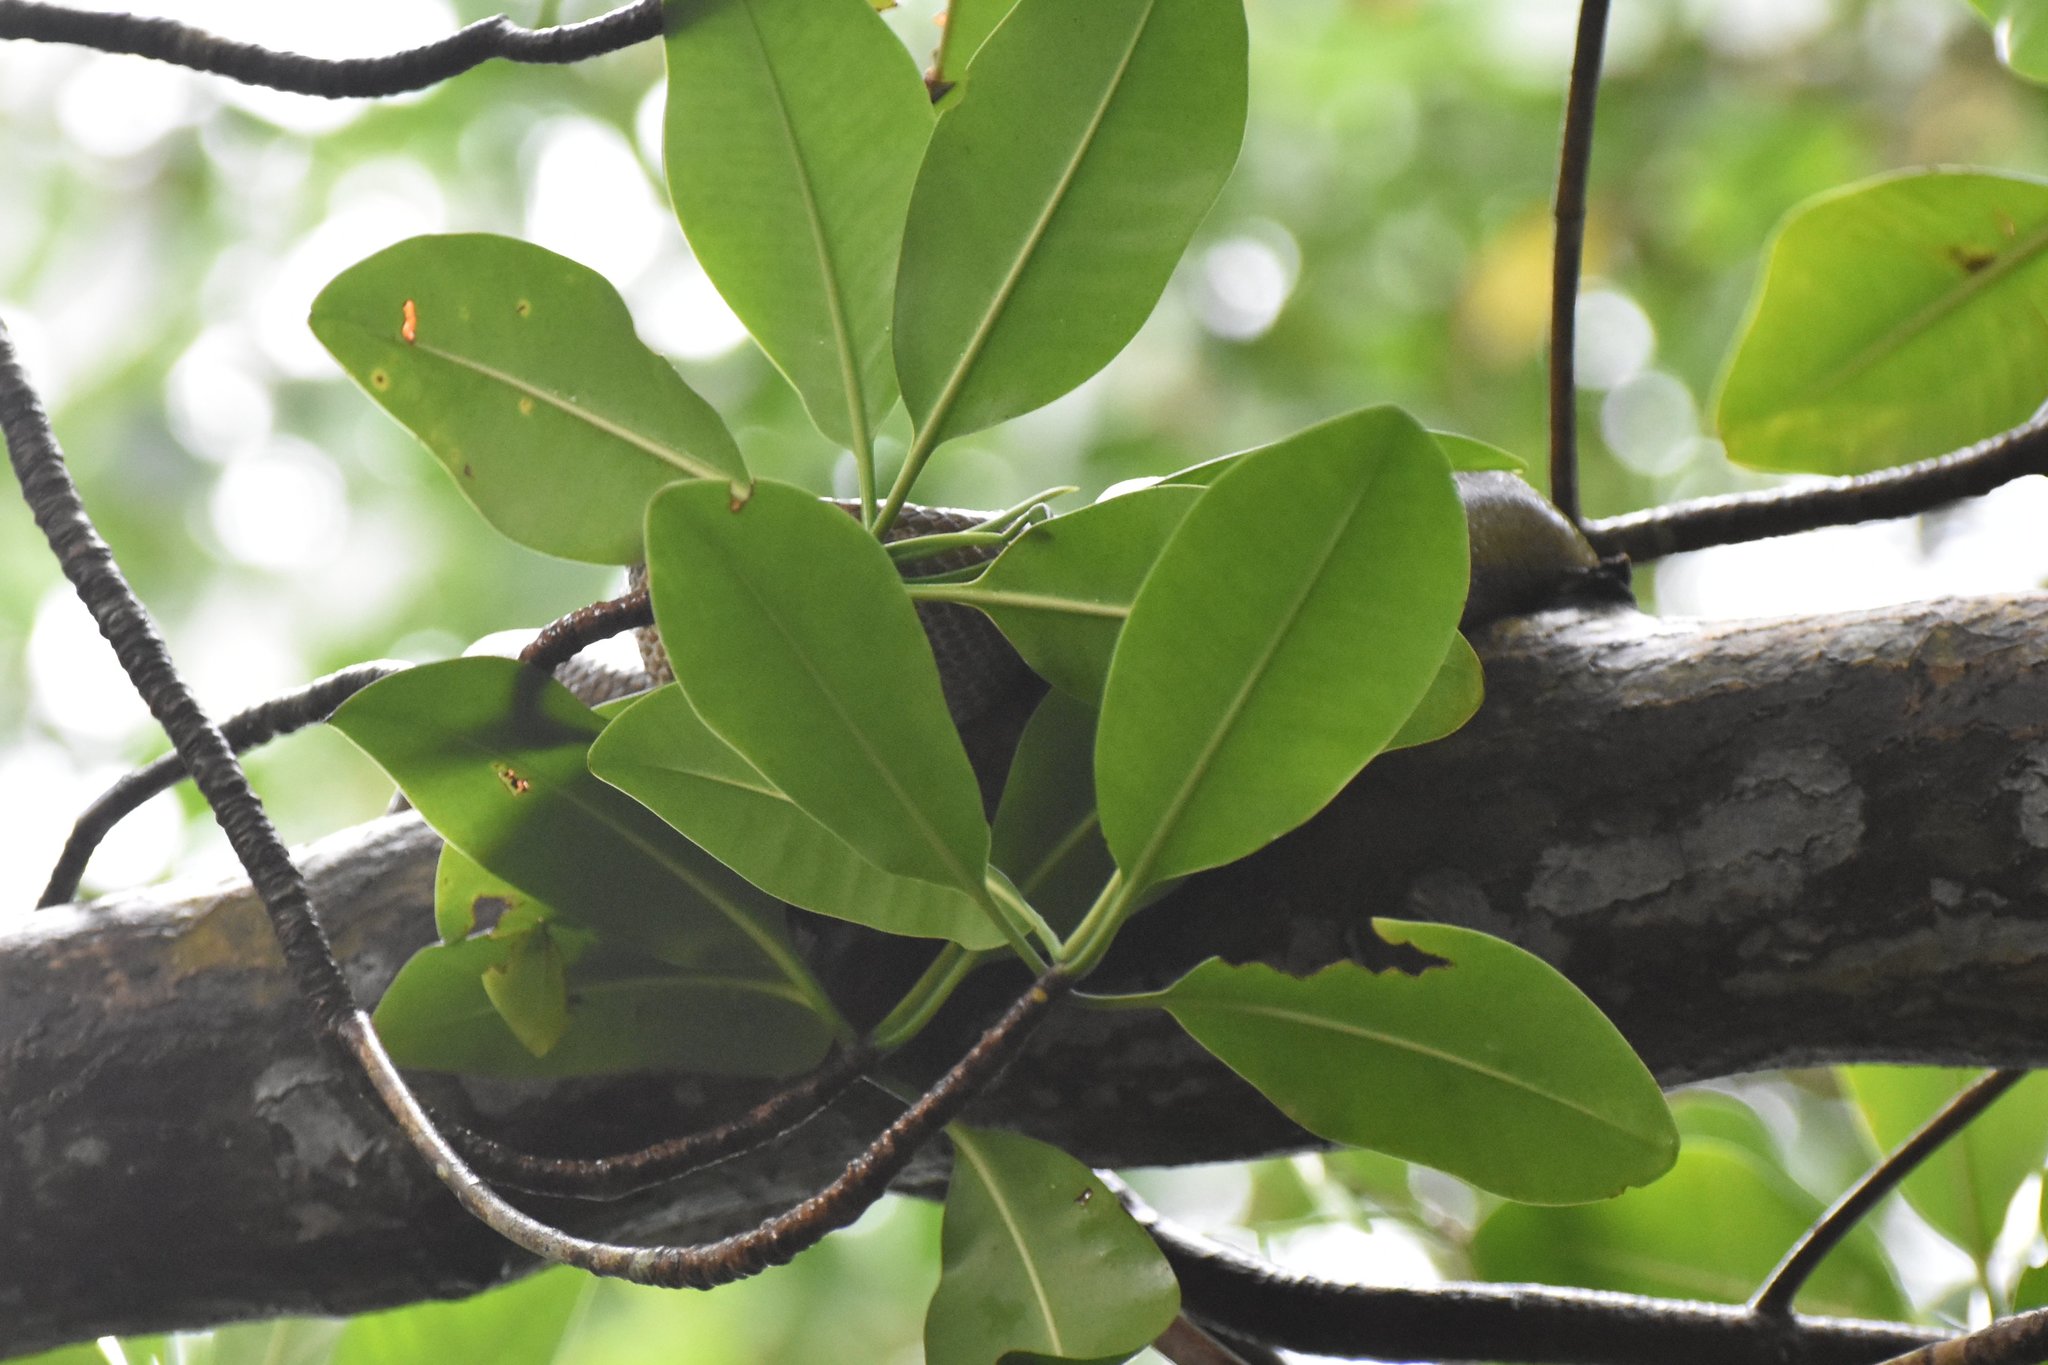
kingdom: Animalia
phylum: Chordata
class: Squamata
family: Boidae
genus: Corallus
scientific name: Corallus ruschenbergerii
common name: Dormilona
